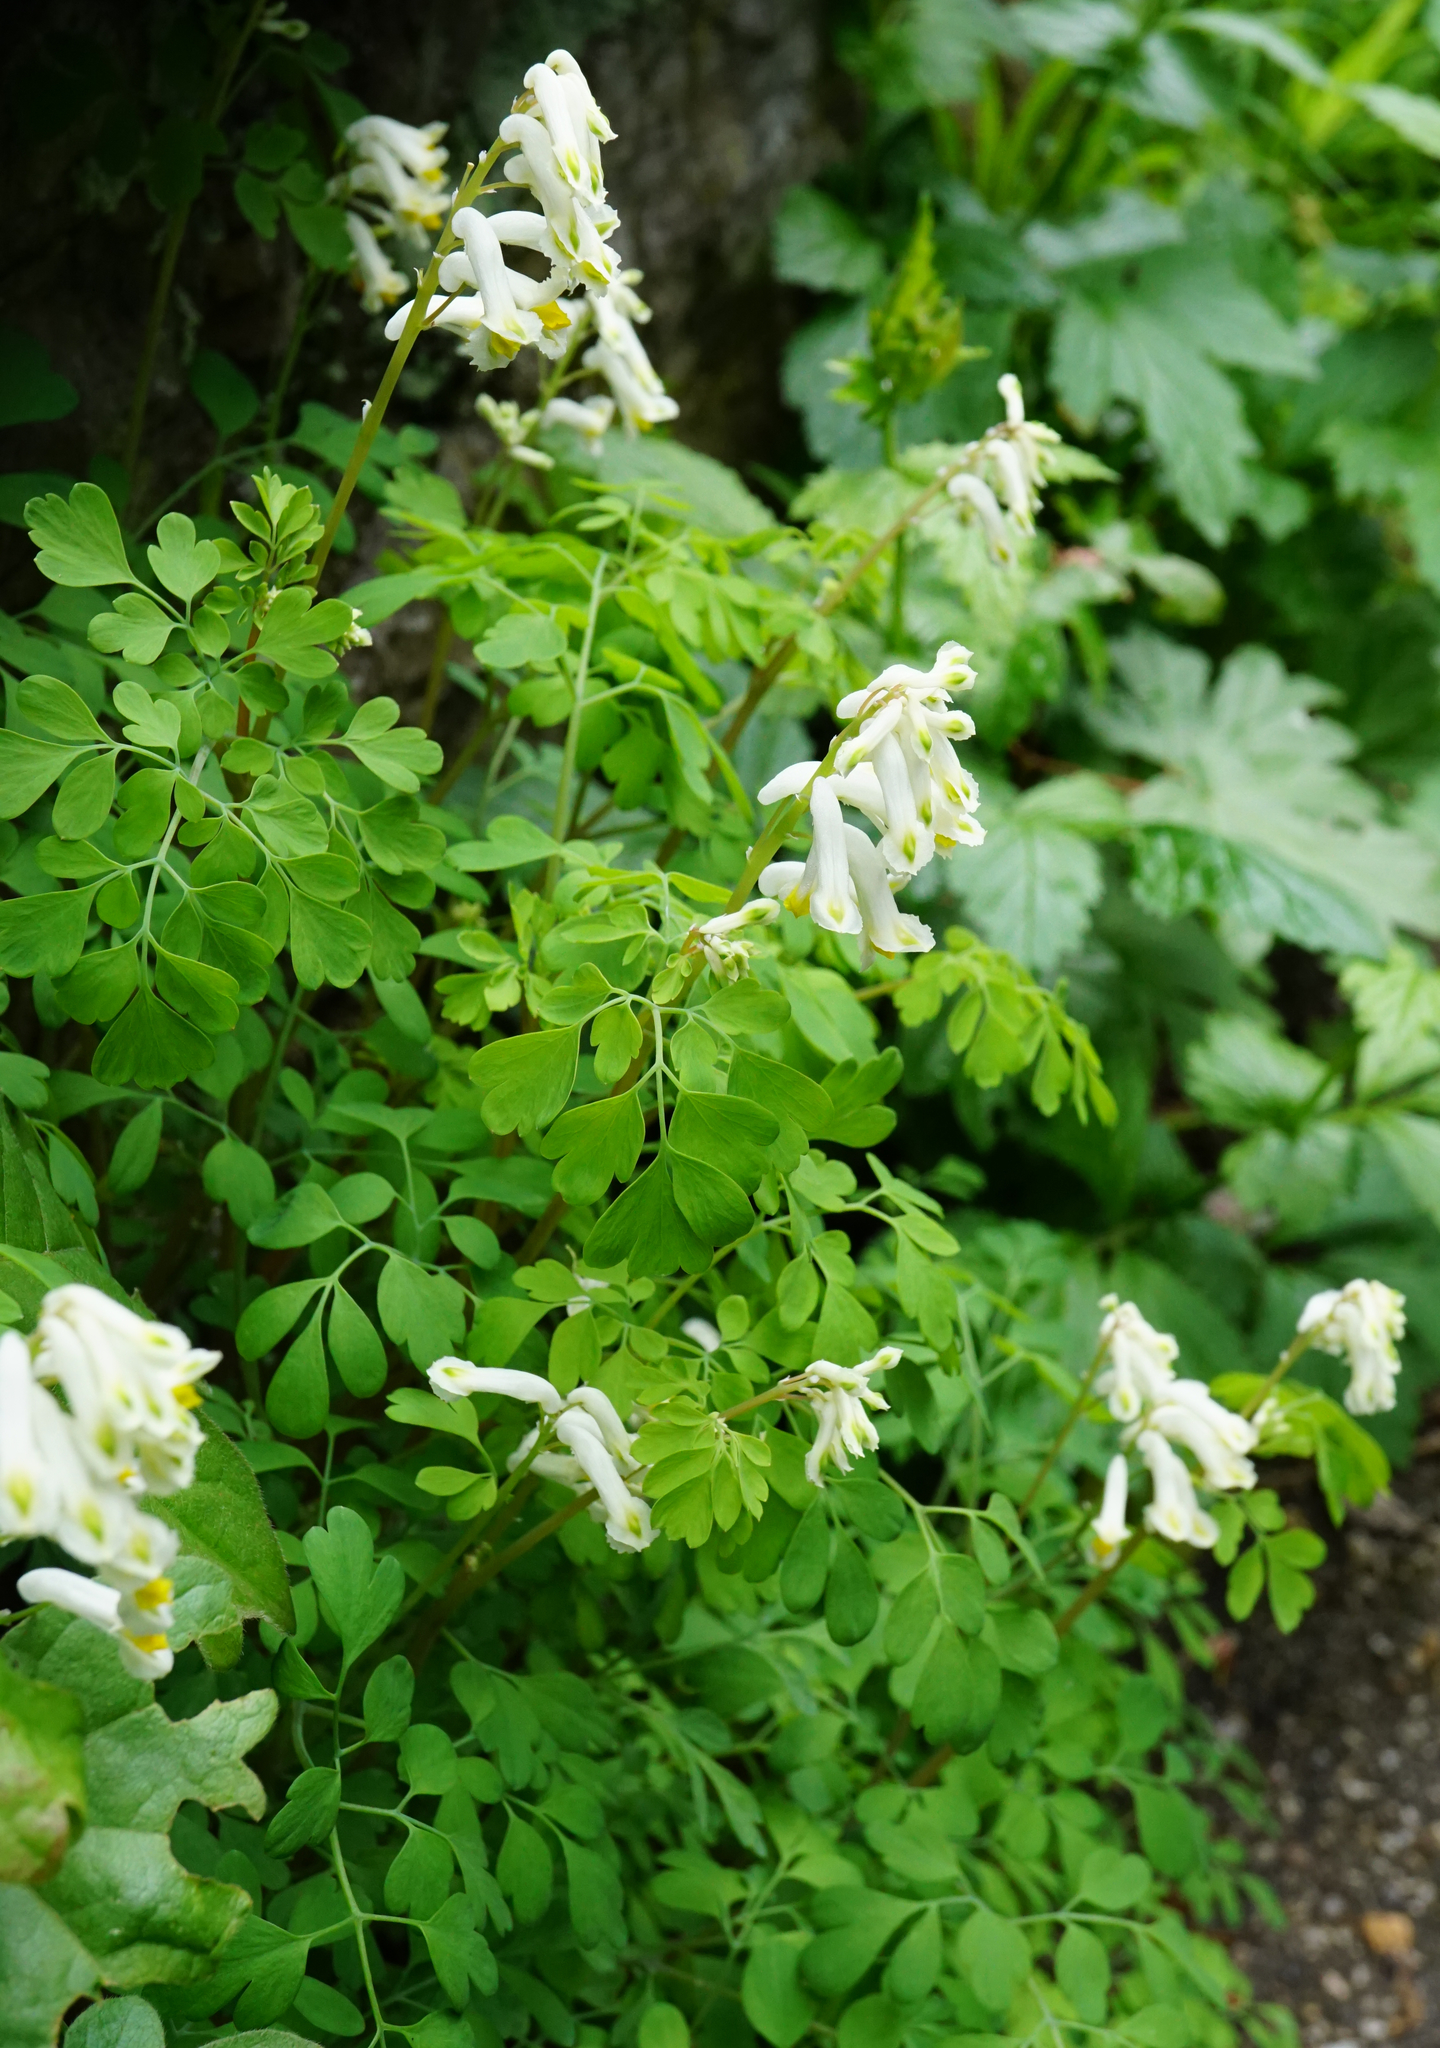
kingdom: Plantae
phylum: Tracheophyta
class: Magnoliopsida
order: Ranunculales
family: Papaveraceae
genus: Pseudofumaria
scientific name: Pseudofumaria alba
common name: Pale corydalis
